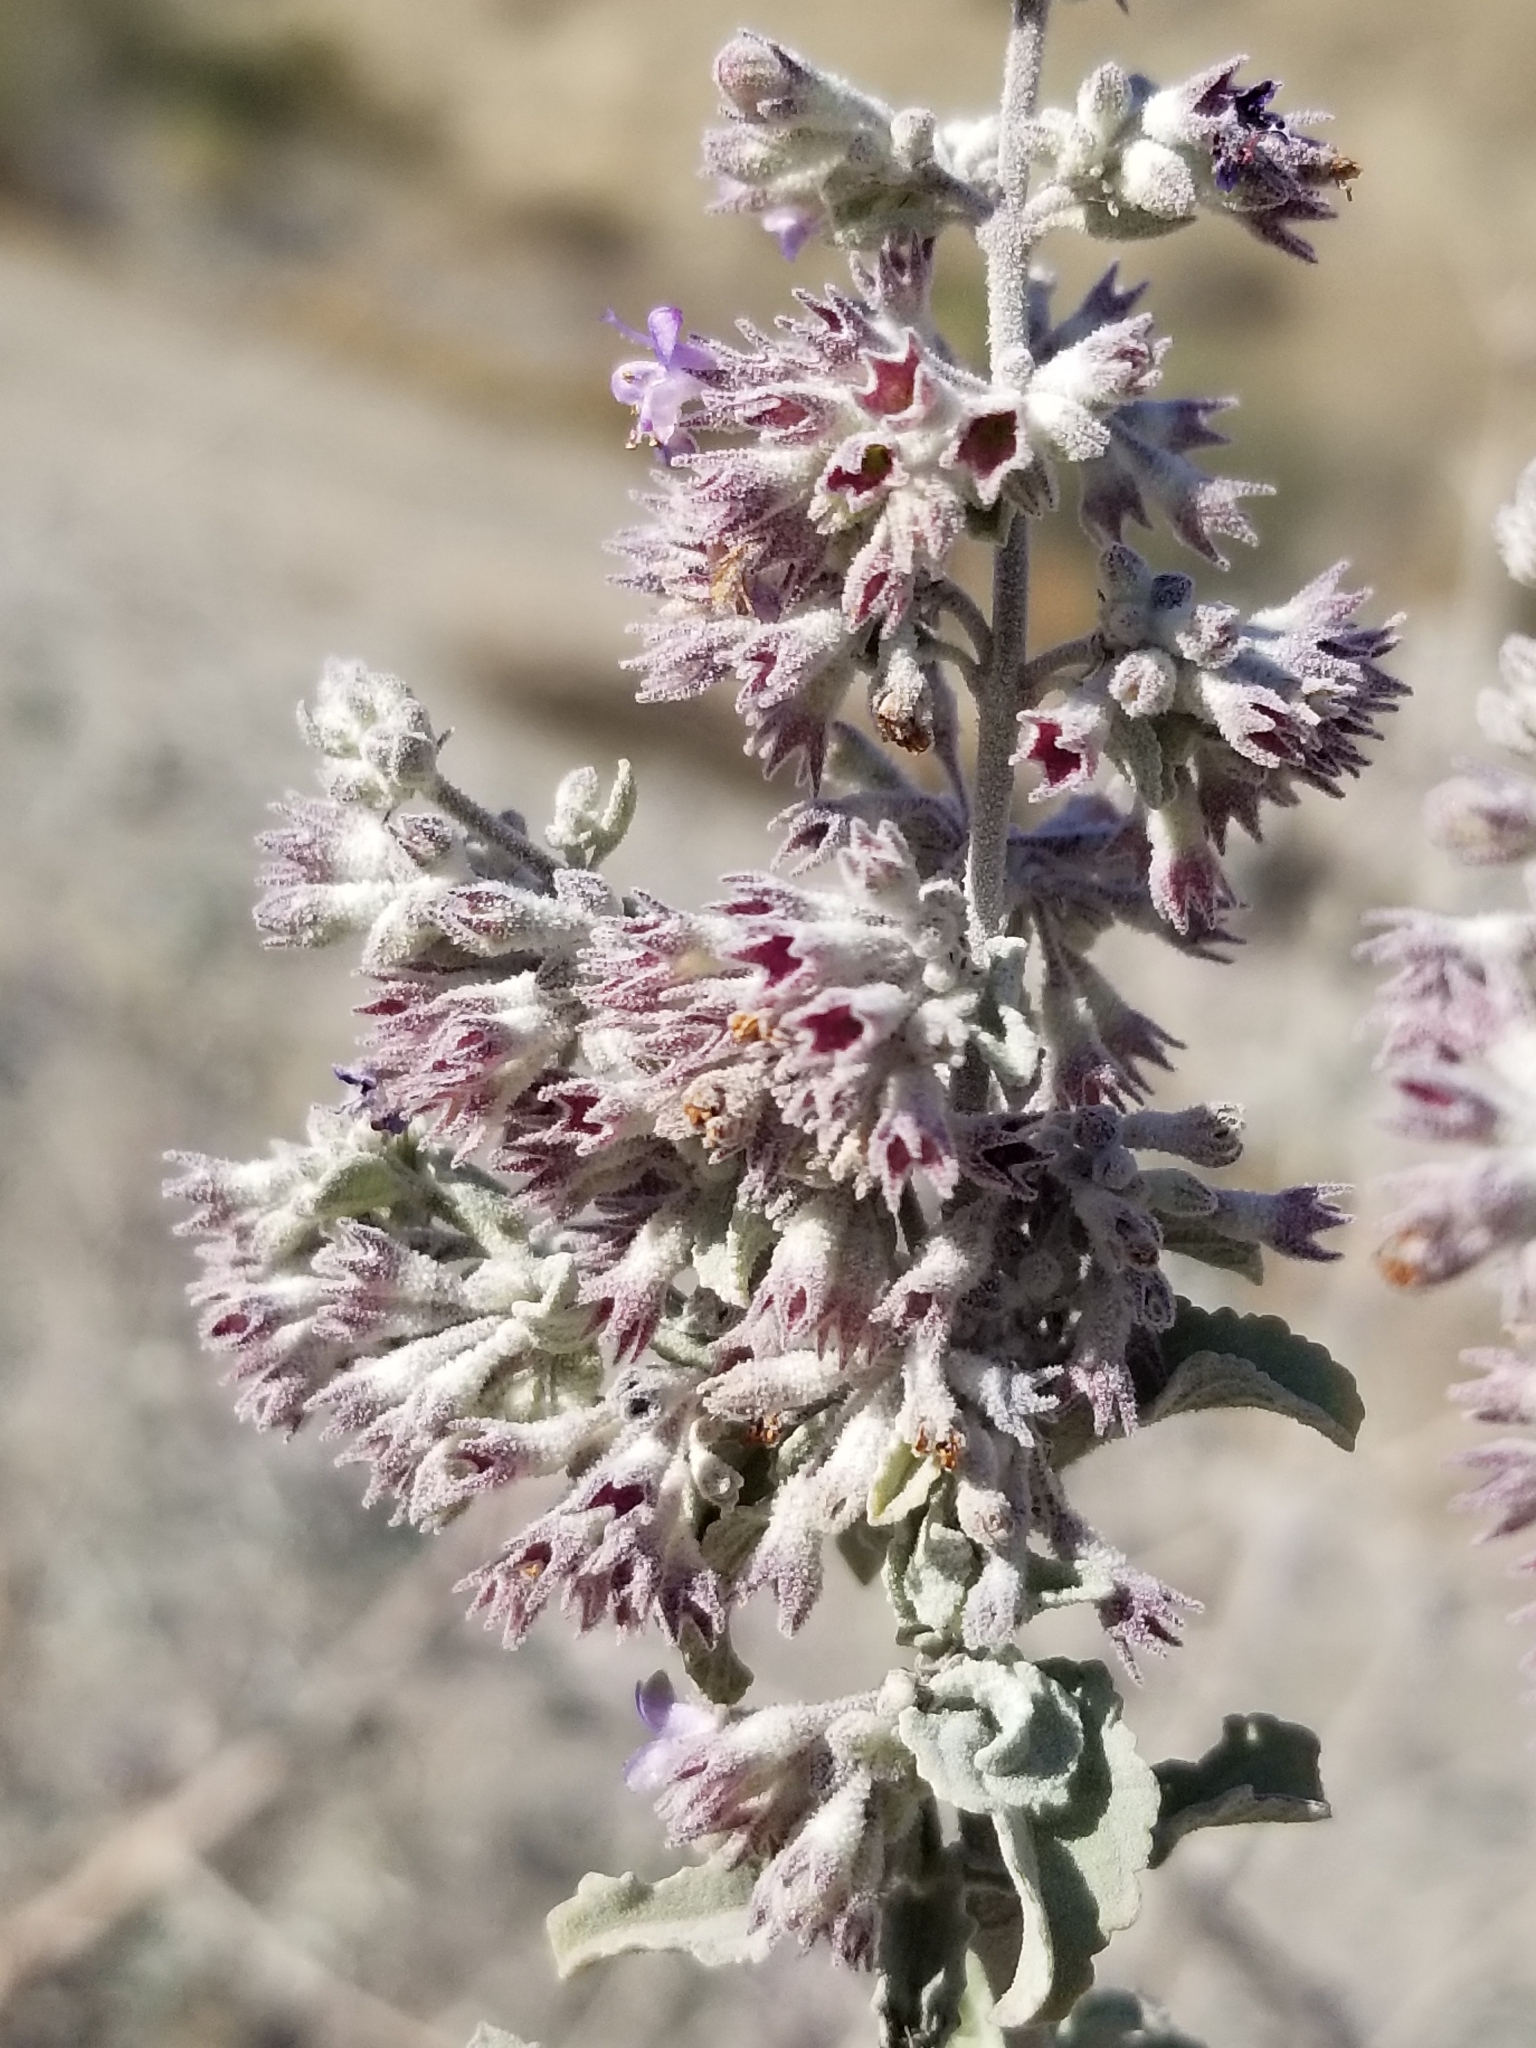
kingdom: Plantae
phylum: Tracheophyta
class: Magnoliopsida
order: Lamiales
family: Lamiaceae
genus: Condea
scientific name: Condea emoryi
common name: Chia
